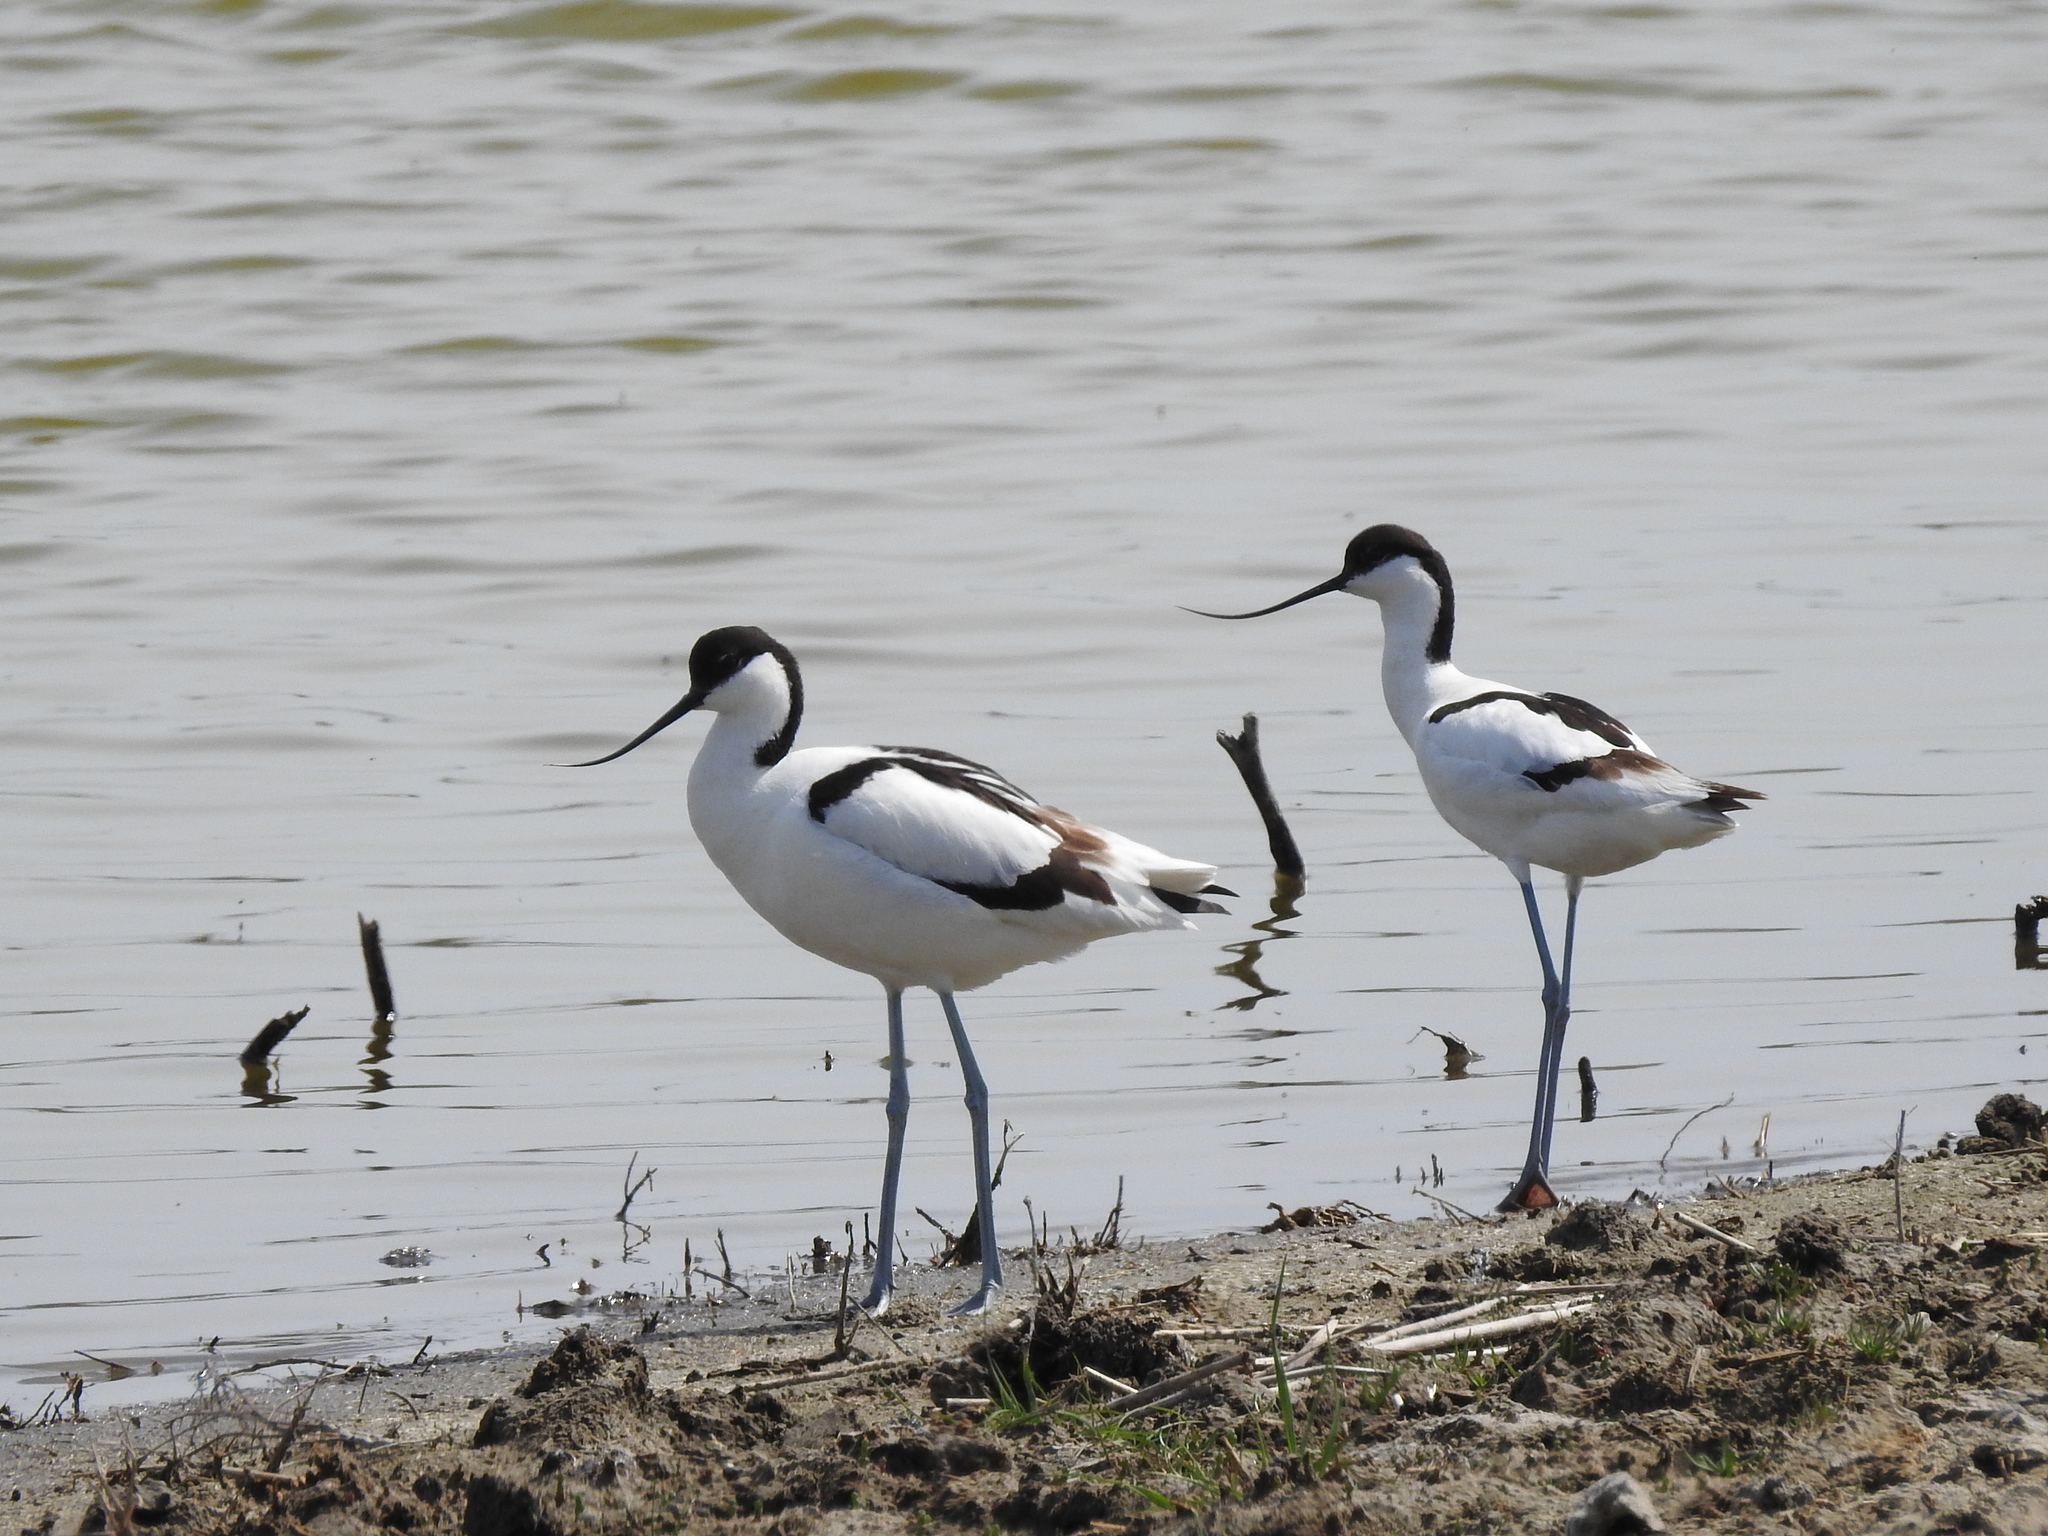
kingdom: Animalia
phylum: Chordata
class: Aves
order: Charadriiformes
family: Recurvirostridae
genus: Recurvirostra
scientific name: Recurvirostra avosetta
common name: Pied avocet
